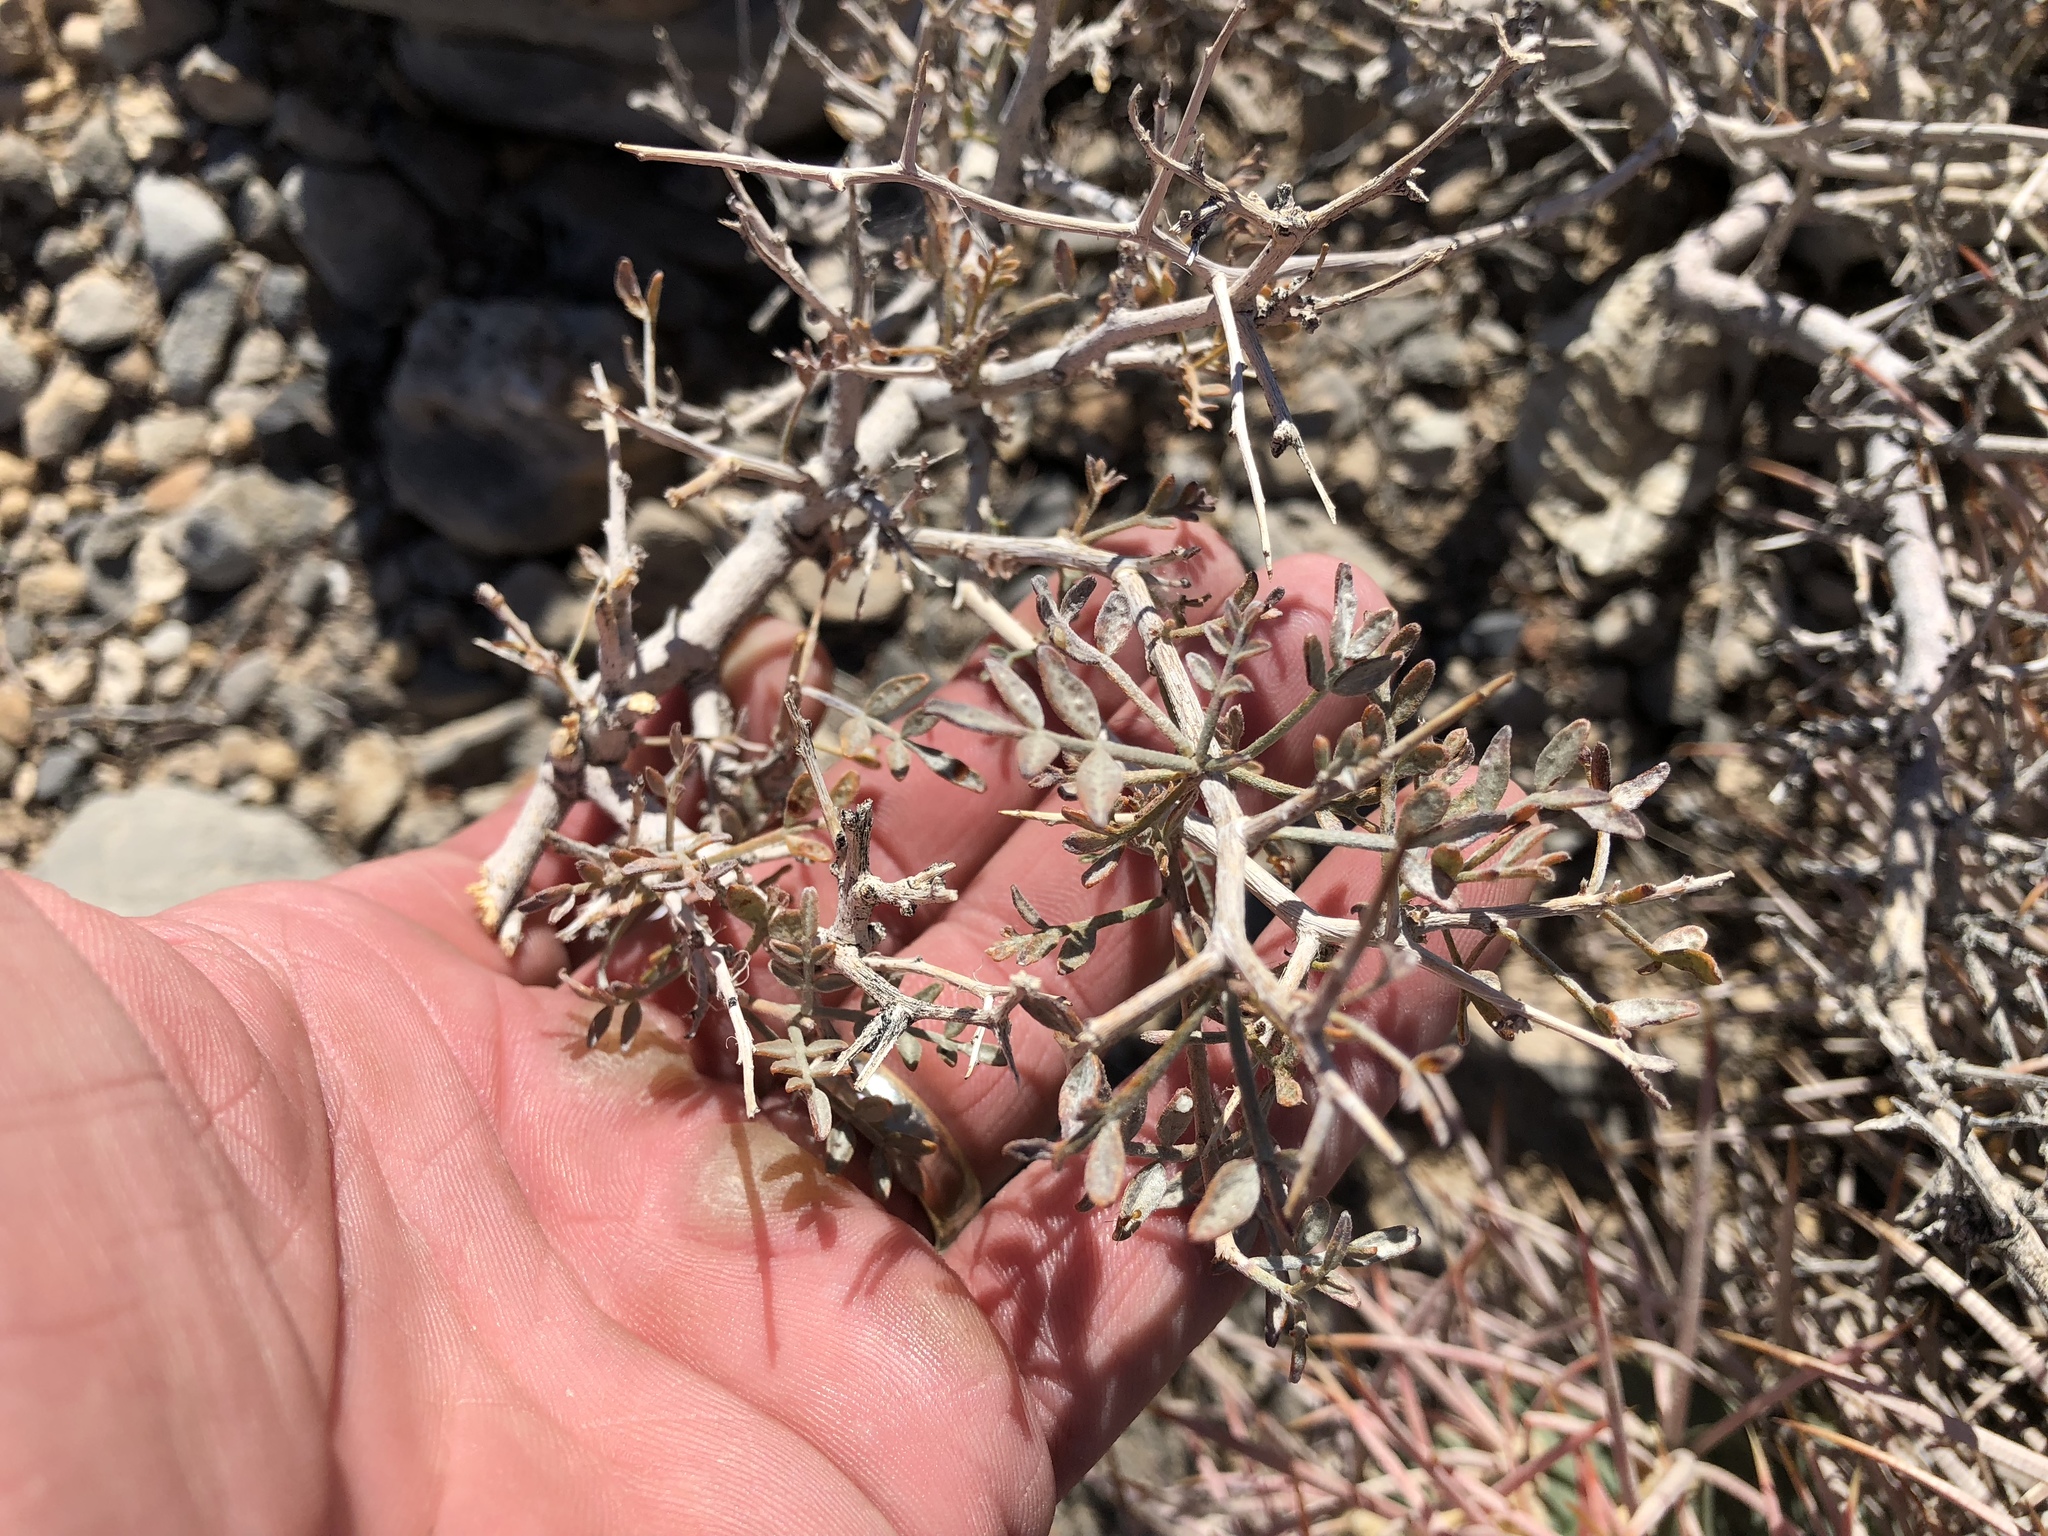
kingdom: Plantae
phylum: Tracheophyta
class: Magnoliopsida
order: Fabales
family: Fabaceae
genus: Psorothamnus
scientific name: Psorothamnus arborescens
